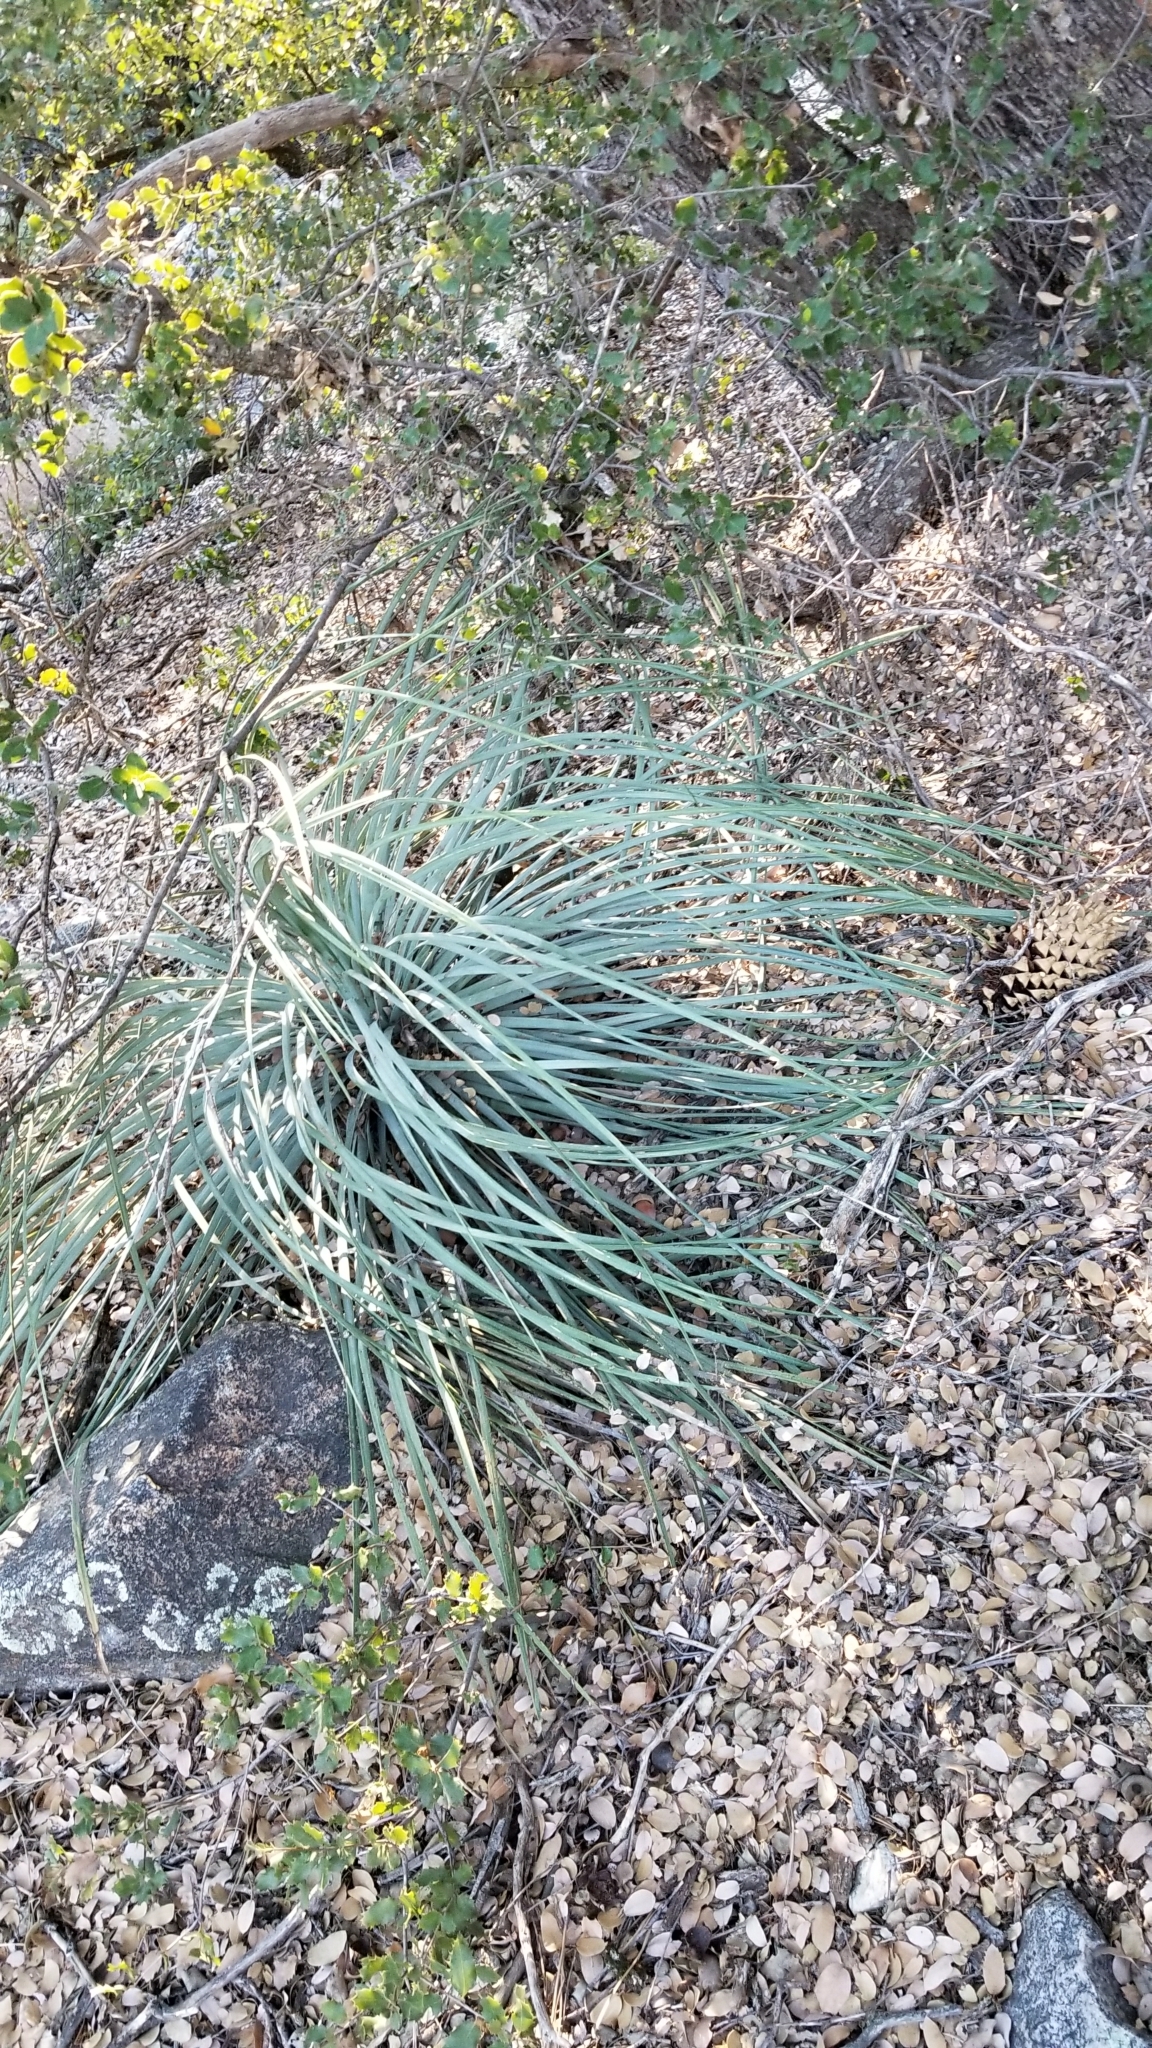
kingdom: Plantae
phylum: Tracheophyta
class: Liliopsida
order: Asparagales
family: Asparagaceae
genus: Hesperoyucca
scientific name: Hesperoyucca whipplei
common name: Our lord's-candle
